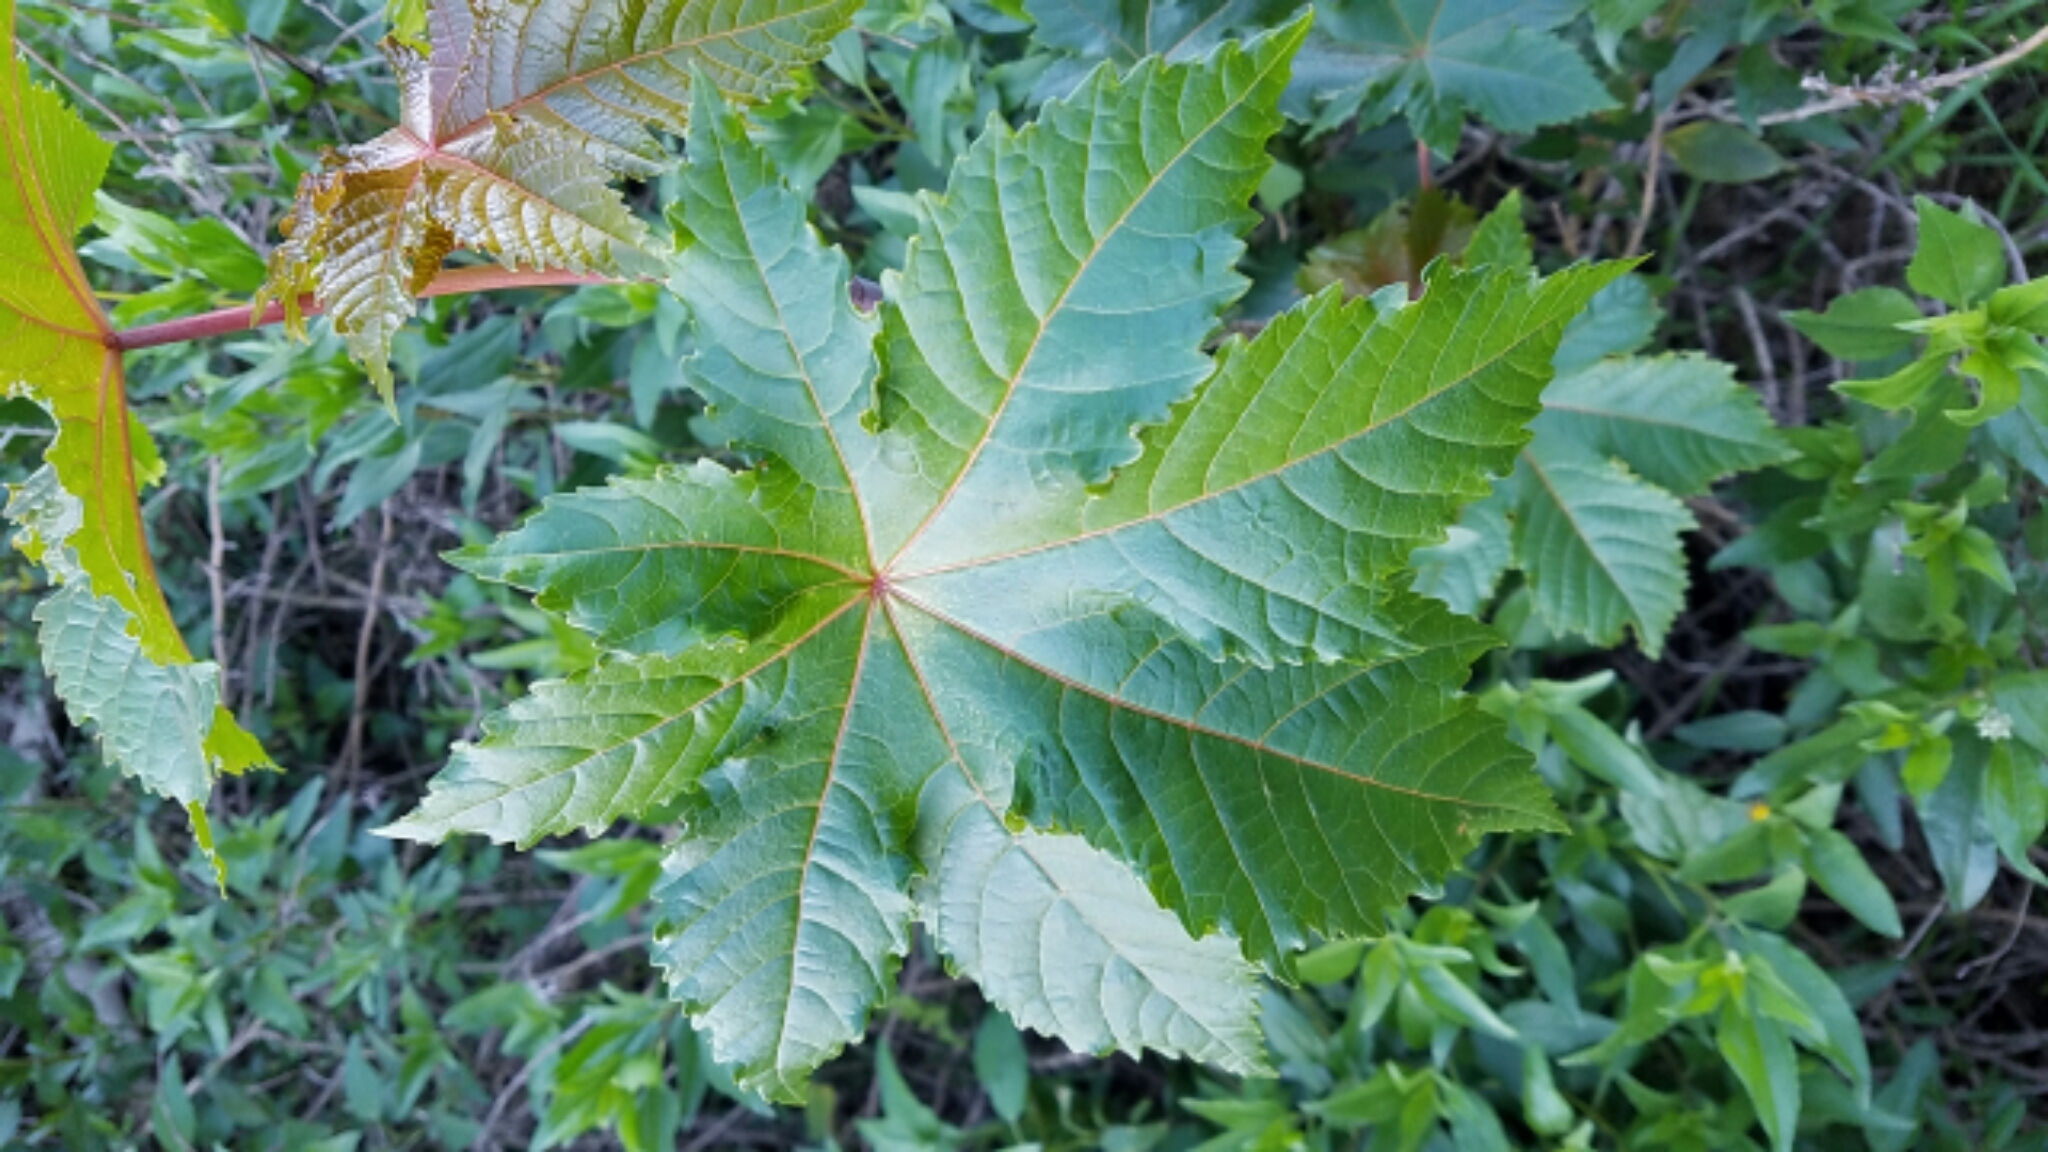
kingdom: Plantae
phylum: Tracheophyta
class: Magnoliopsida
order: Malpighiales
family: Euphorbiaceae
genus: Ricinus
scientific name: Ricinus communis
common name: Castor-oil-plant
